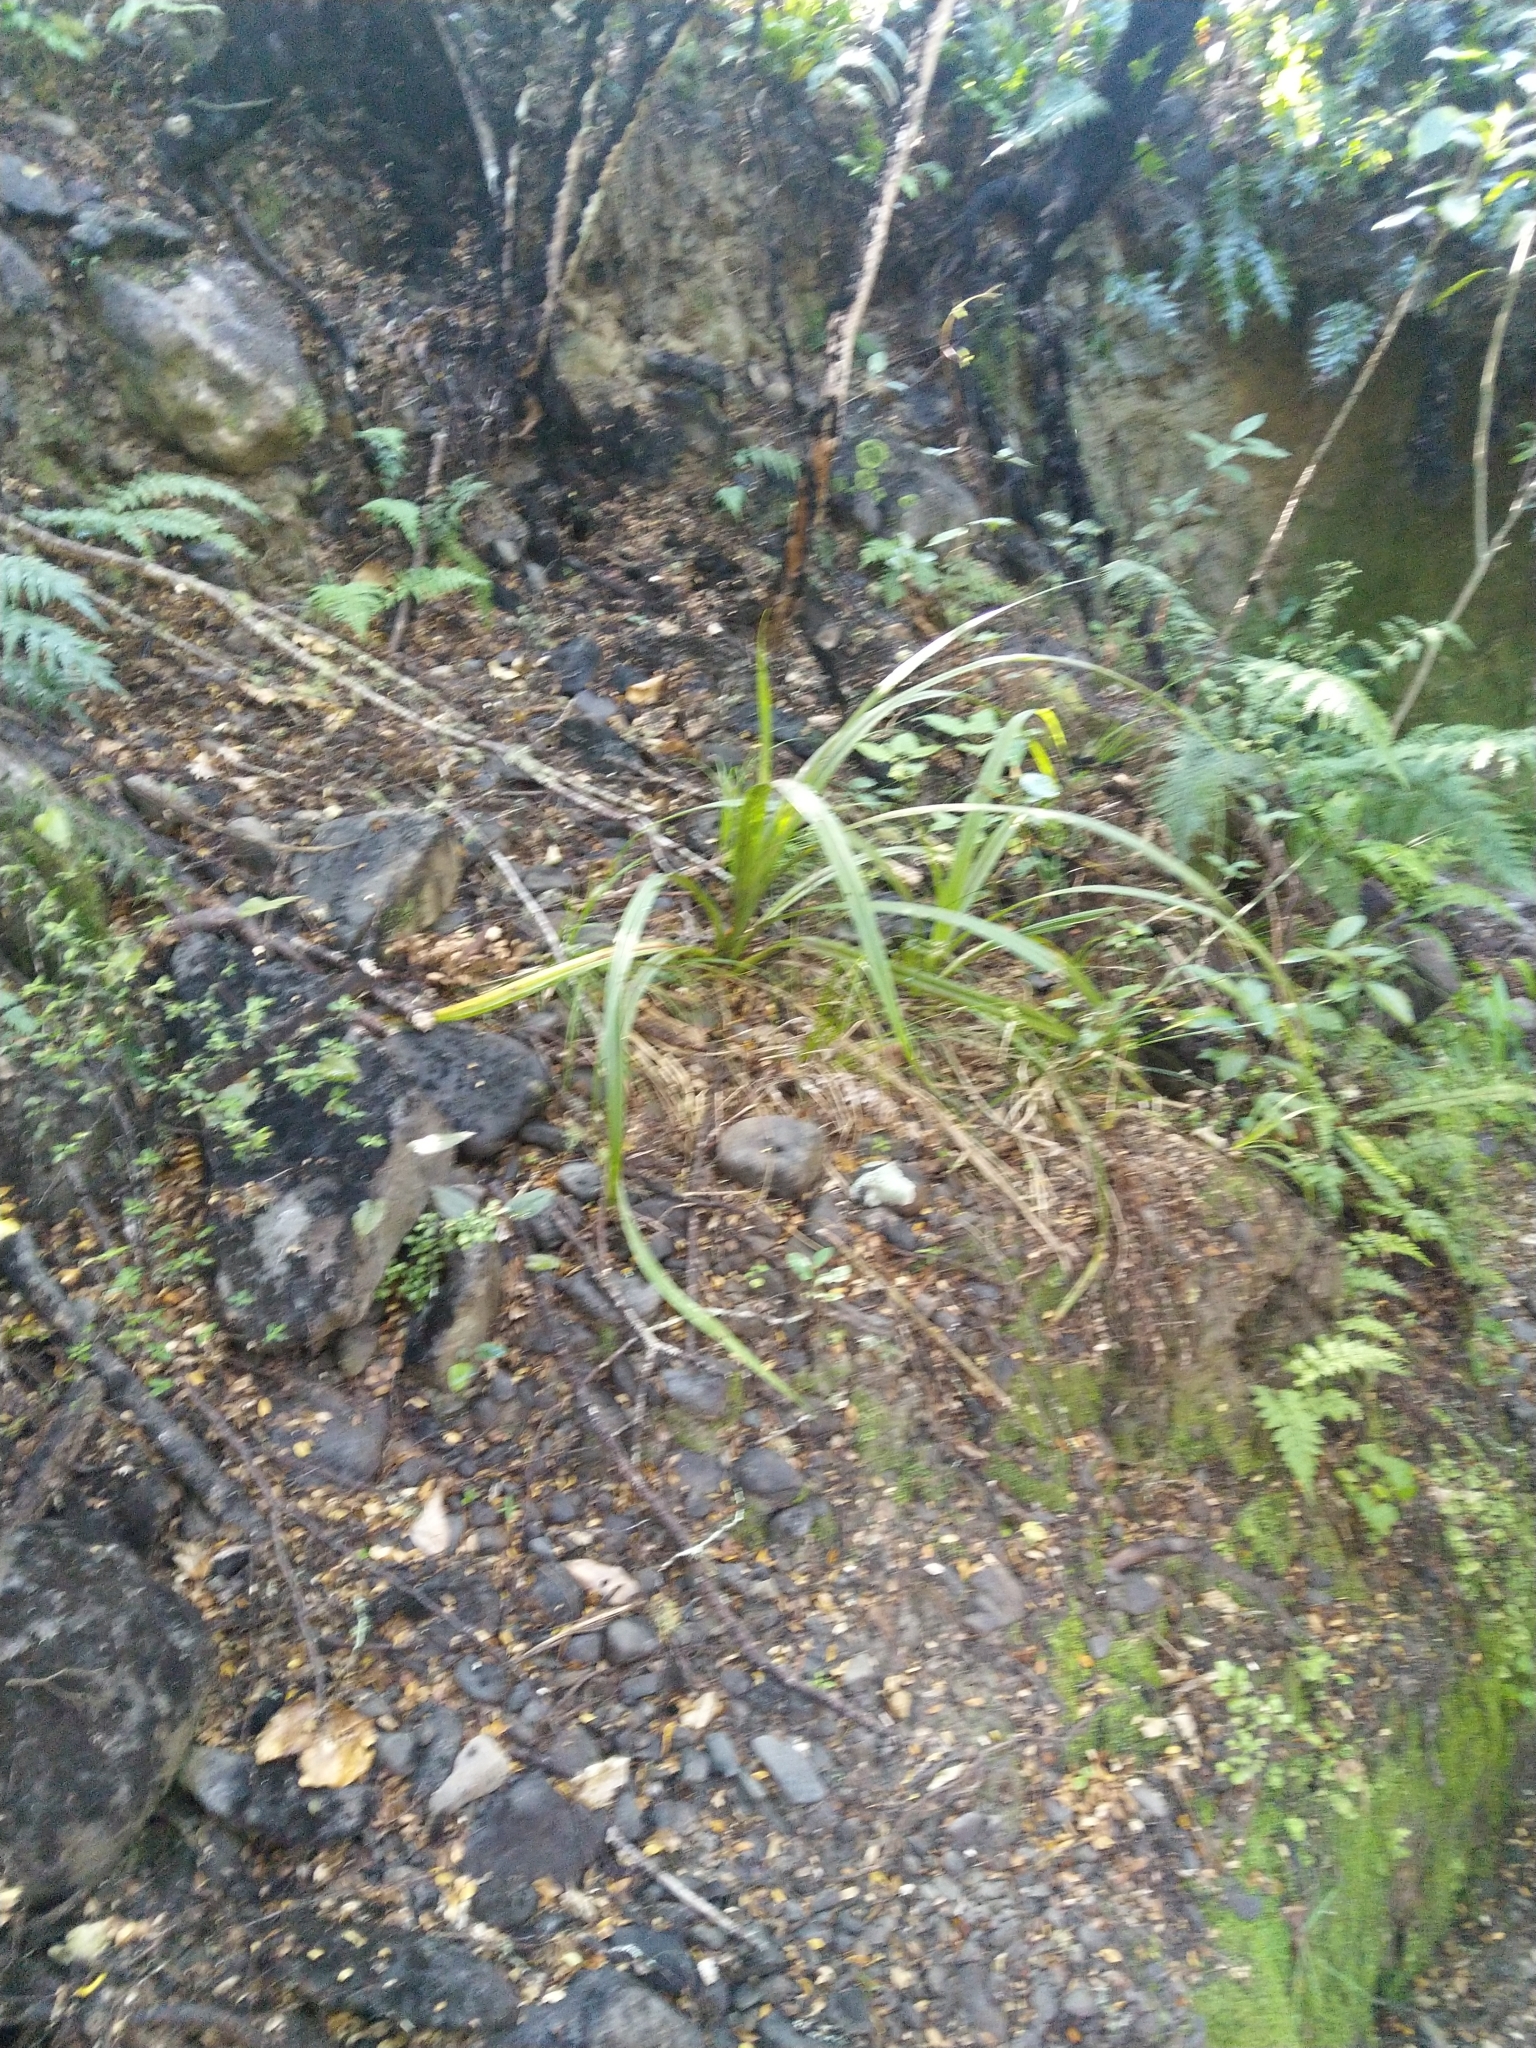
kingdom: Plantae
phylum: Tracheophyta
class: Liliopsida
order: Asparagales
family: Asteliaceae
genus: Astelia
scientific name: Astelia fragrans
